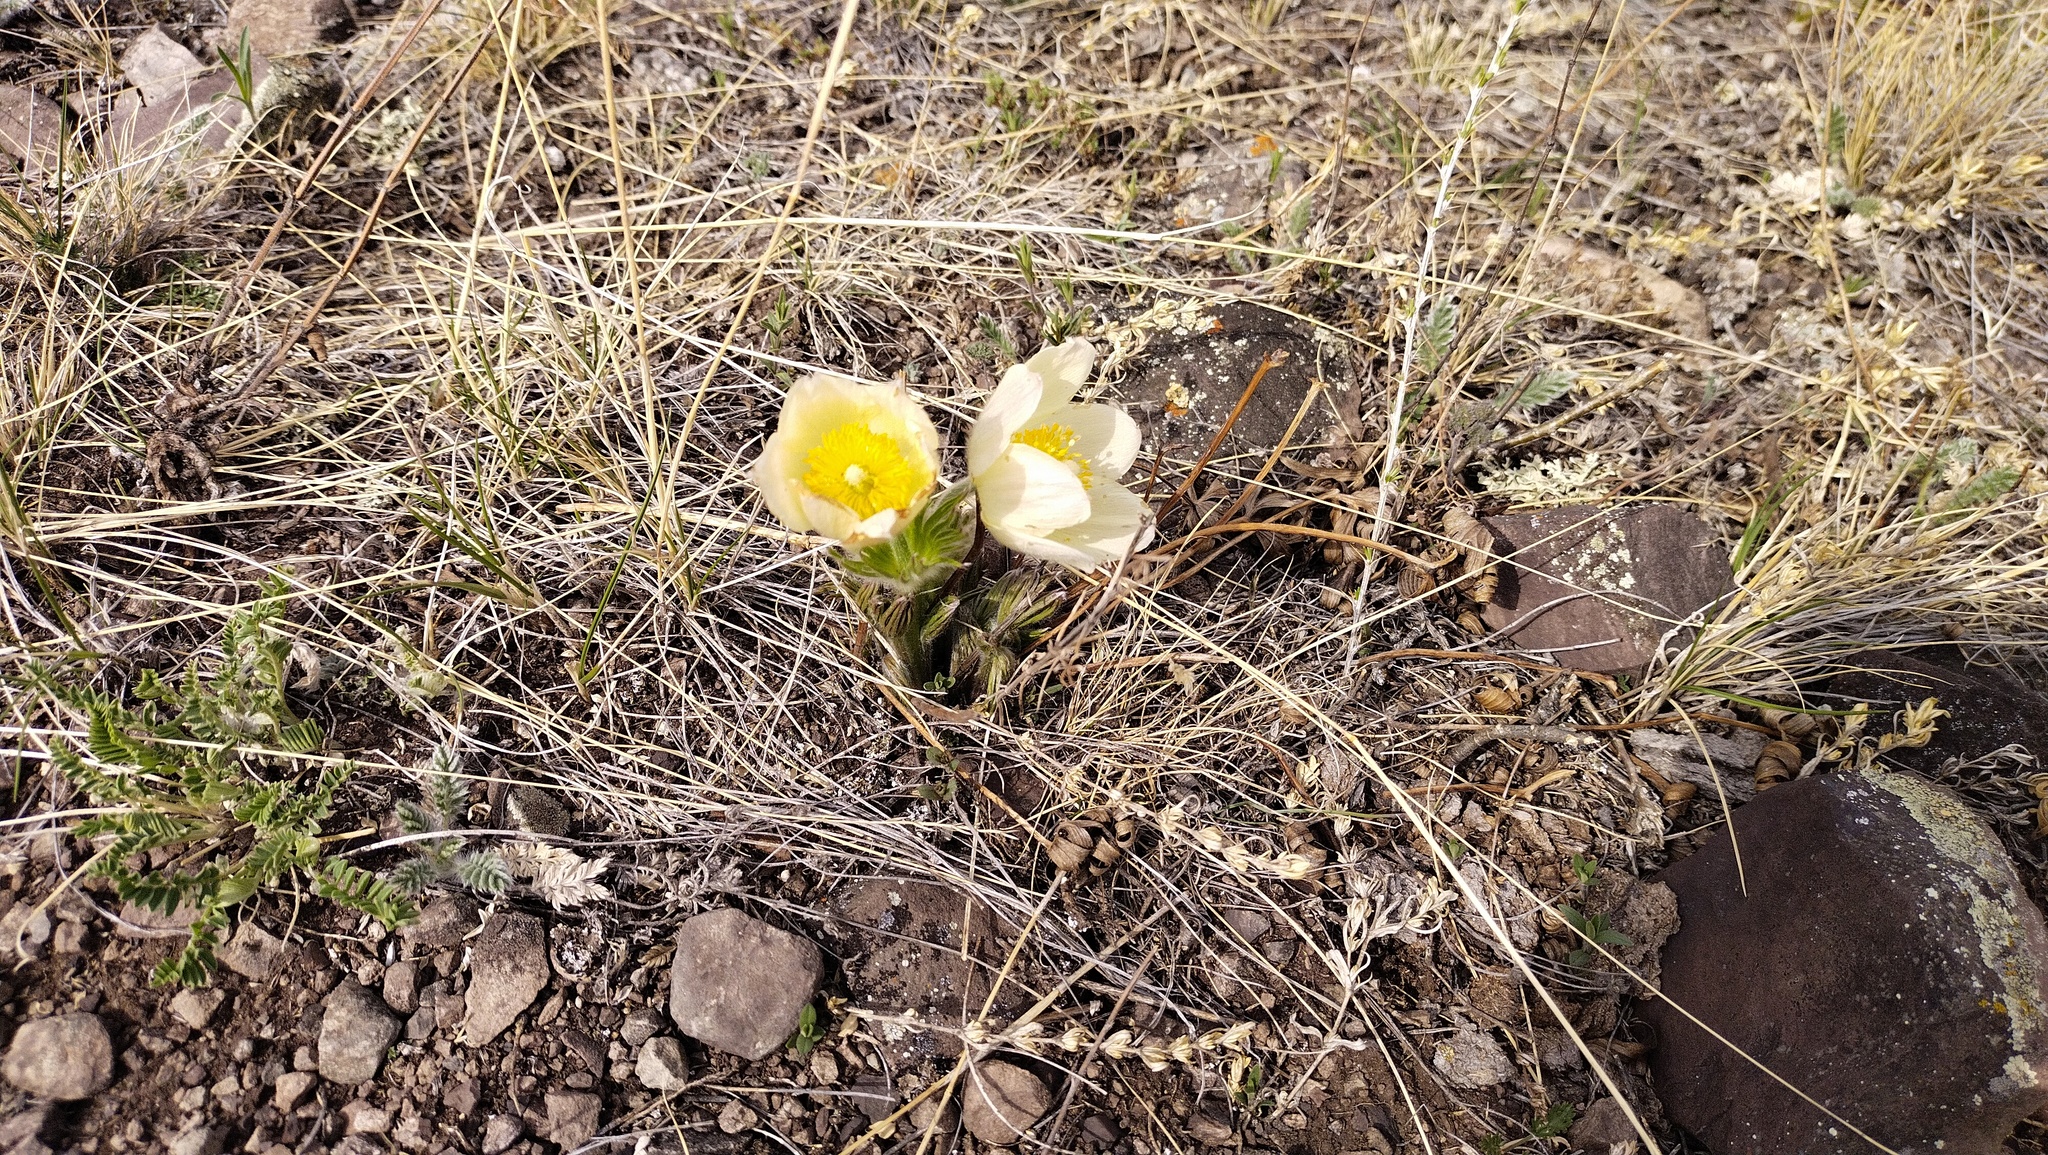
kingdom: Plantae
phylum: Tracheophyta
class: Magnoliopsida
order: Ranunculales
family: Ranunculaceae
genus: Pulsatilla
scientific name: Pulsatilla patens
